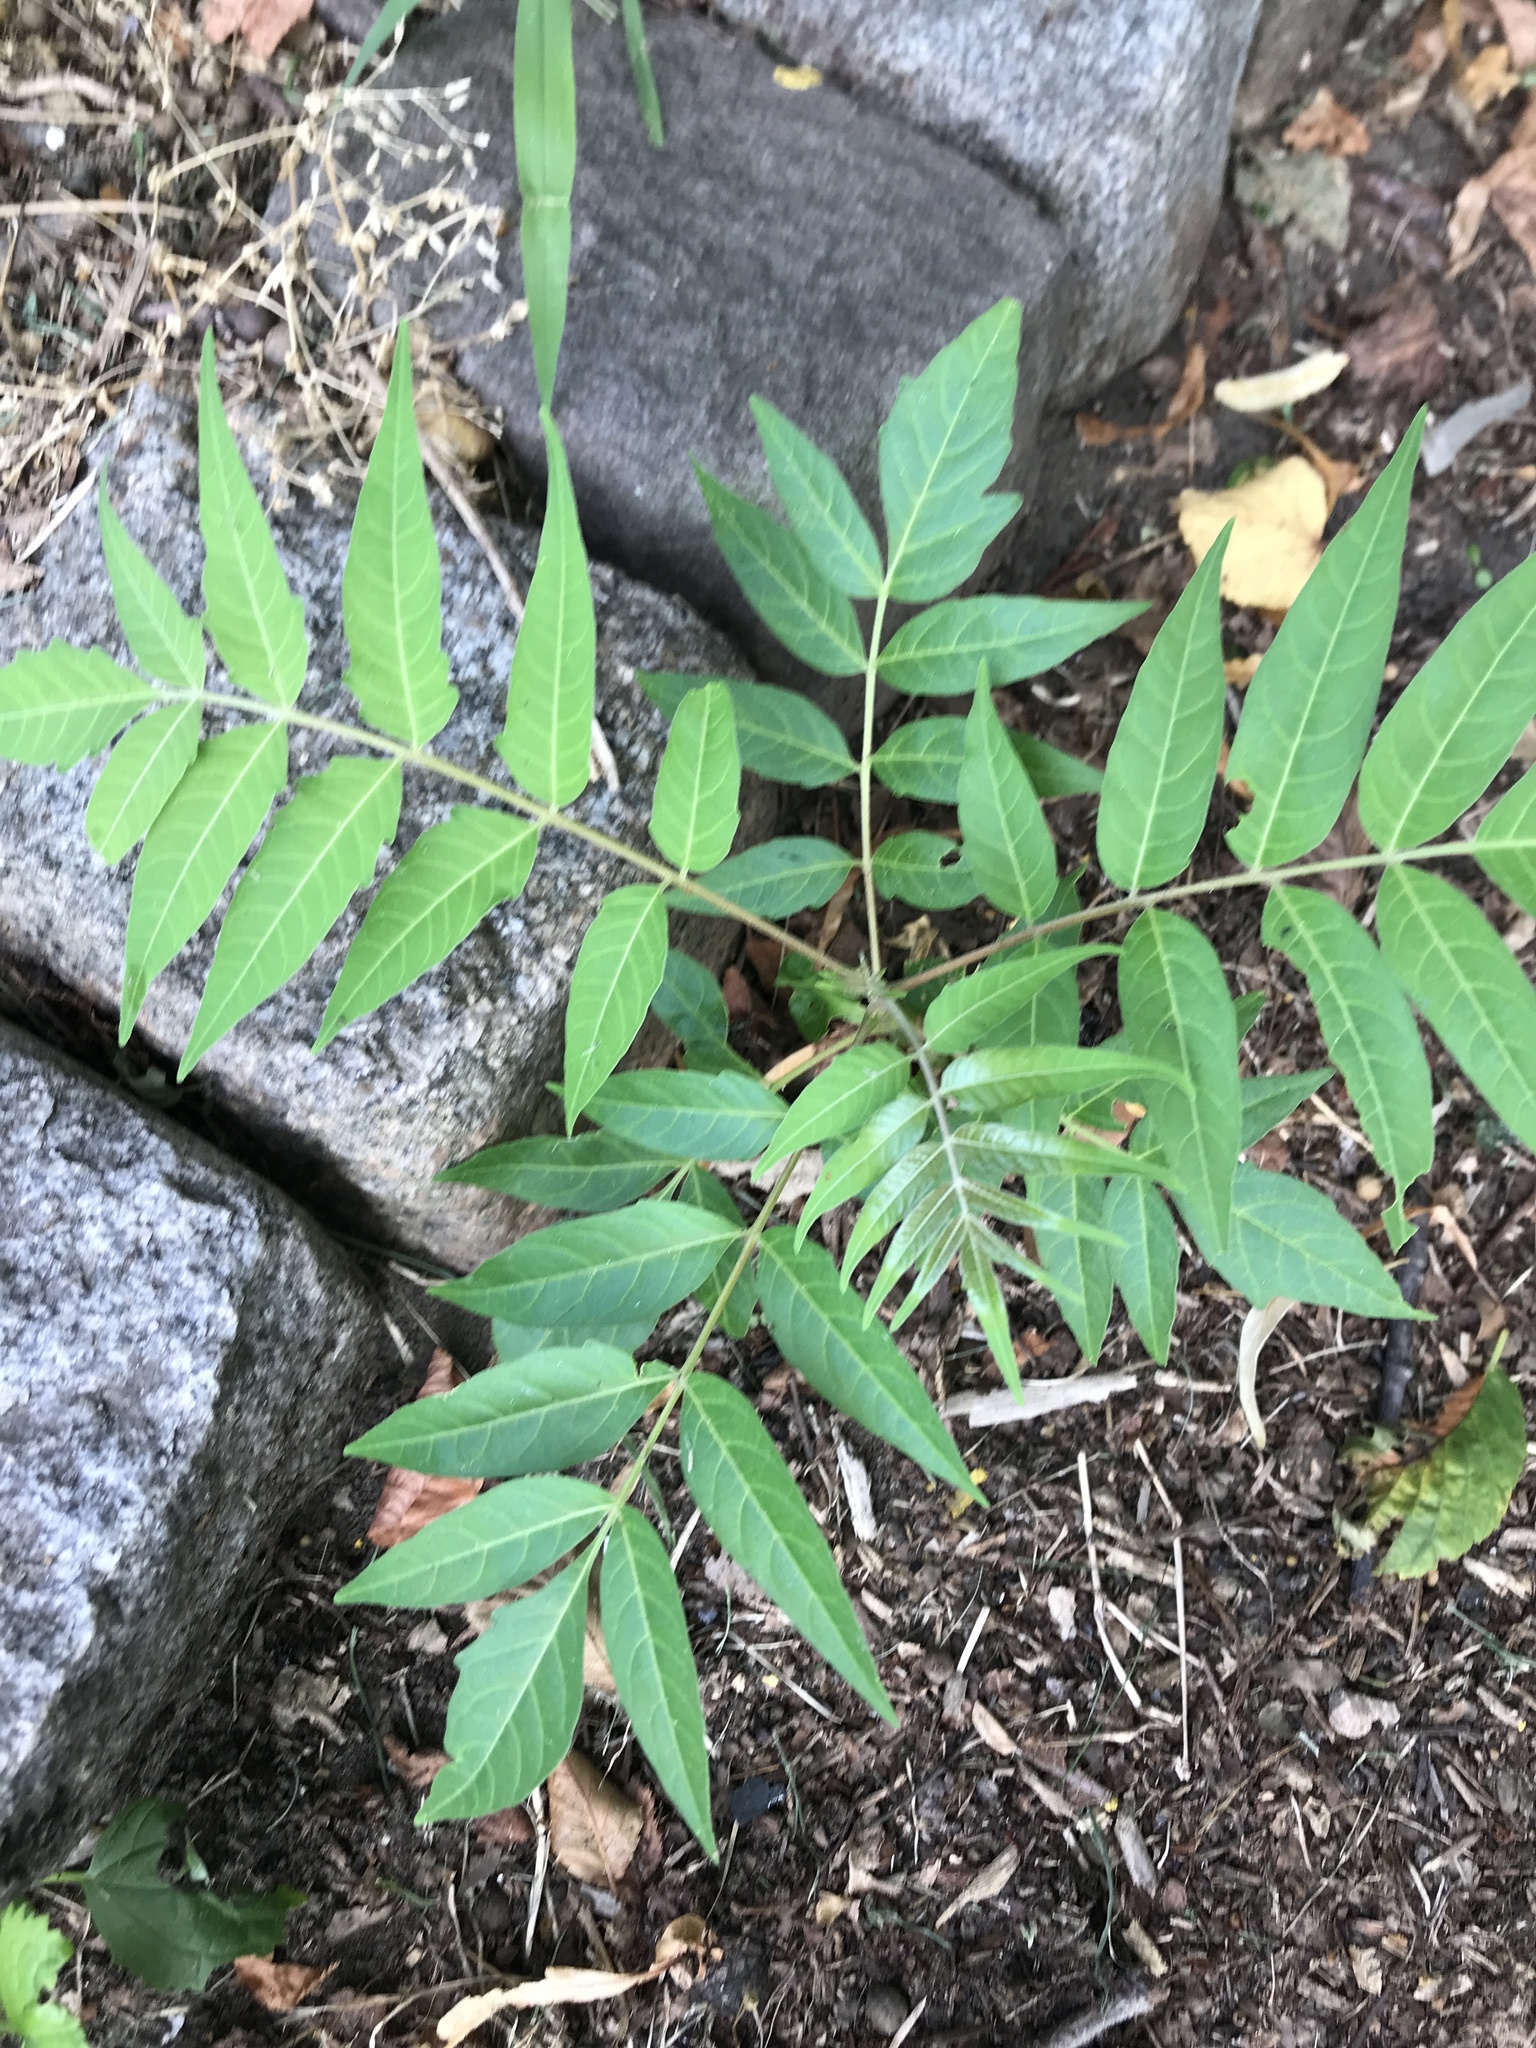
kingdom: Plantae
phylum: Tracheophyta
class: Magnoliopsida
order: Sapindales
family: Simaroubaceae
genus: Ailanthus
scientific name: Ailanthus altissima
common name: Tree-of-heaven
